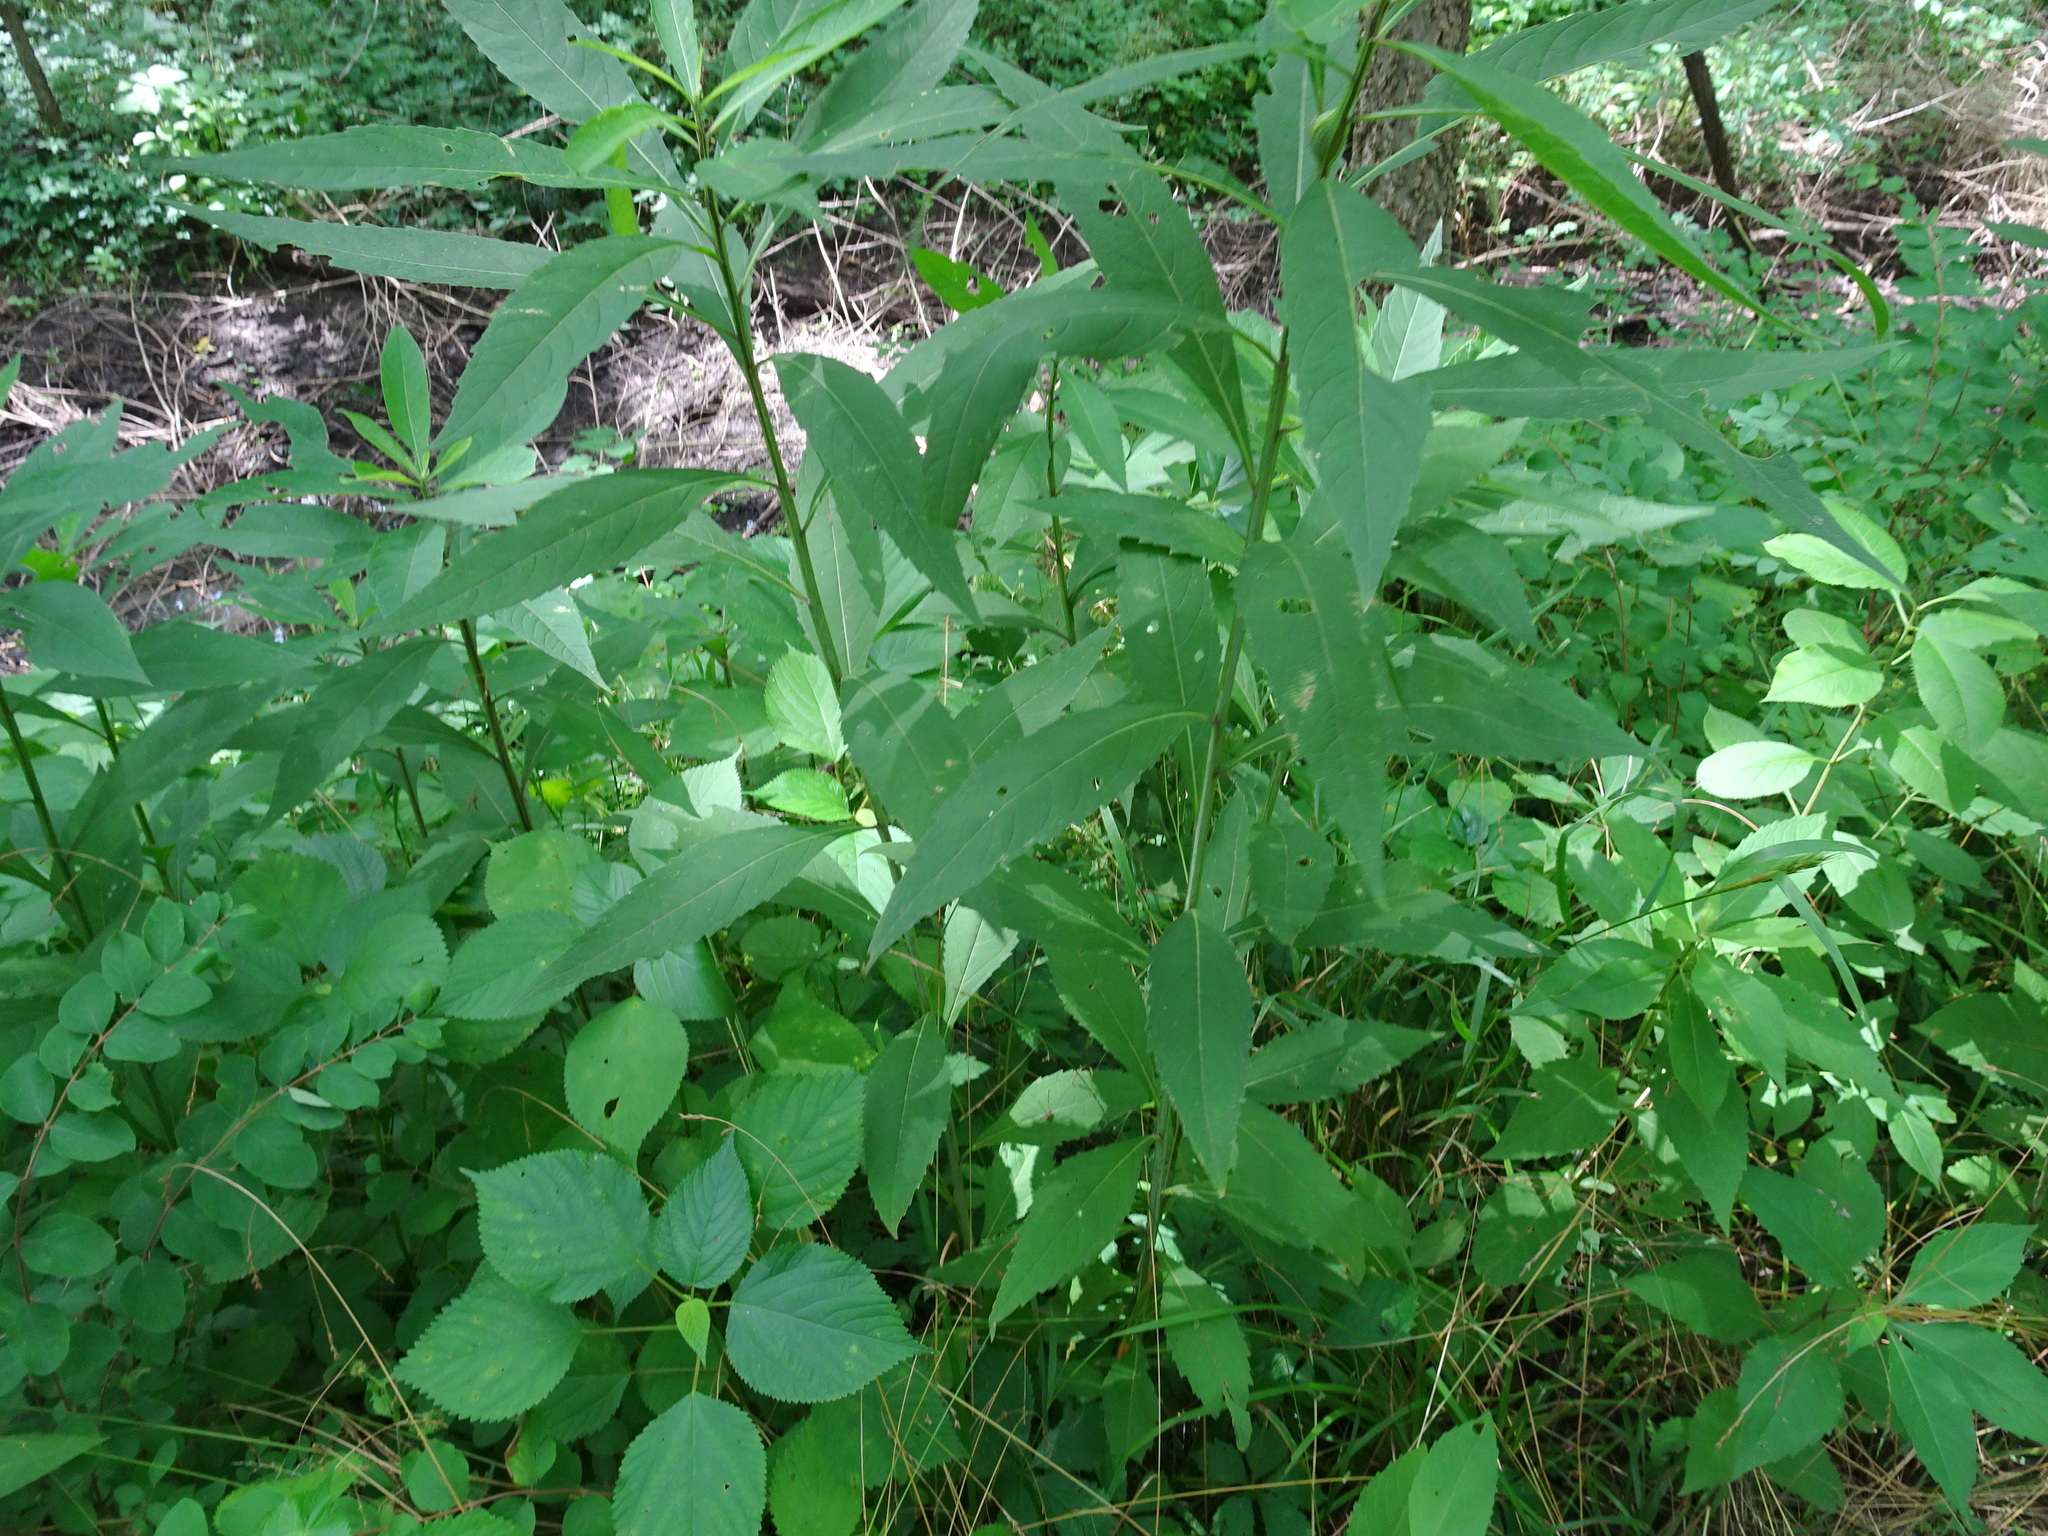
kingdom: Plantae
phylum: Tracheophyta
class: Magnoliopsida
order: Asterales
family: Asteraceae
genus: Verbesina
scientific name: Verbesina alternifolia
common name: Wingstem
